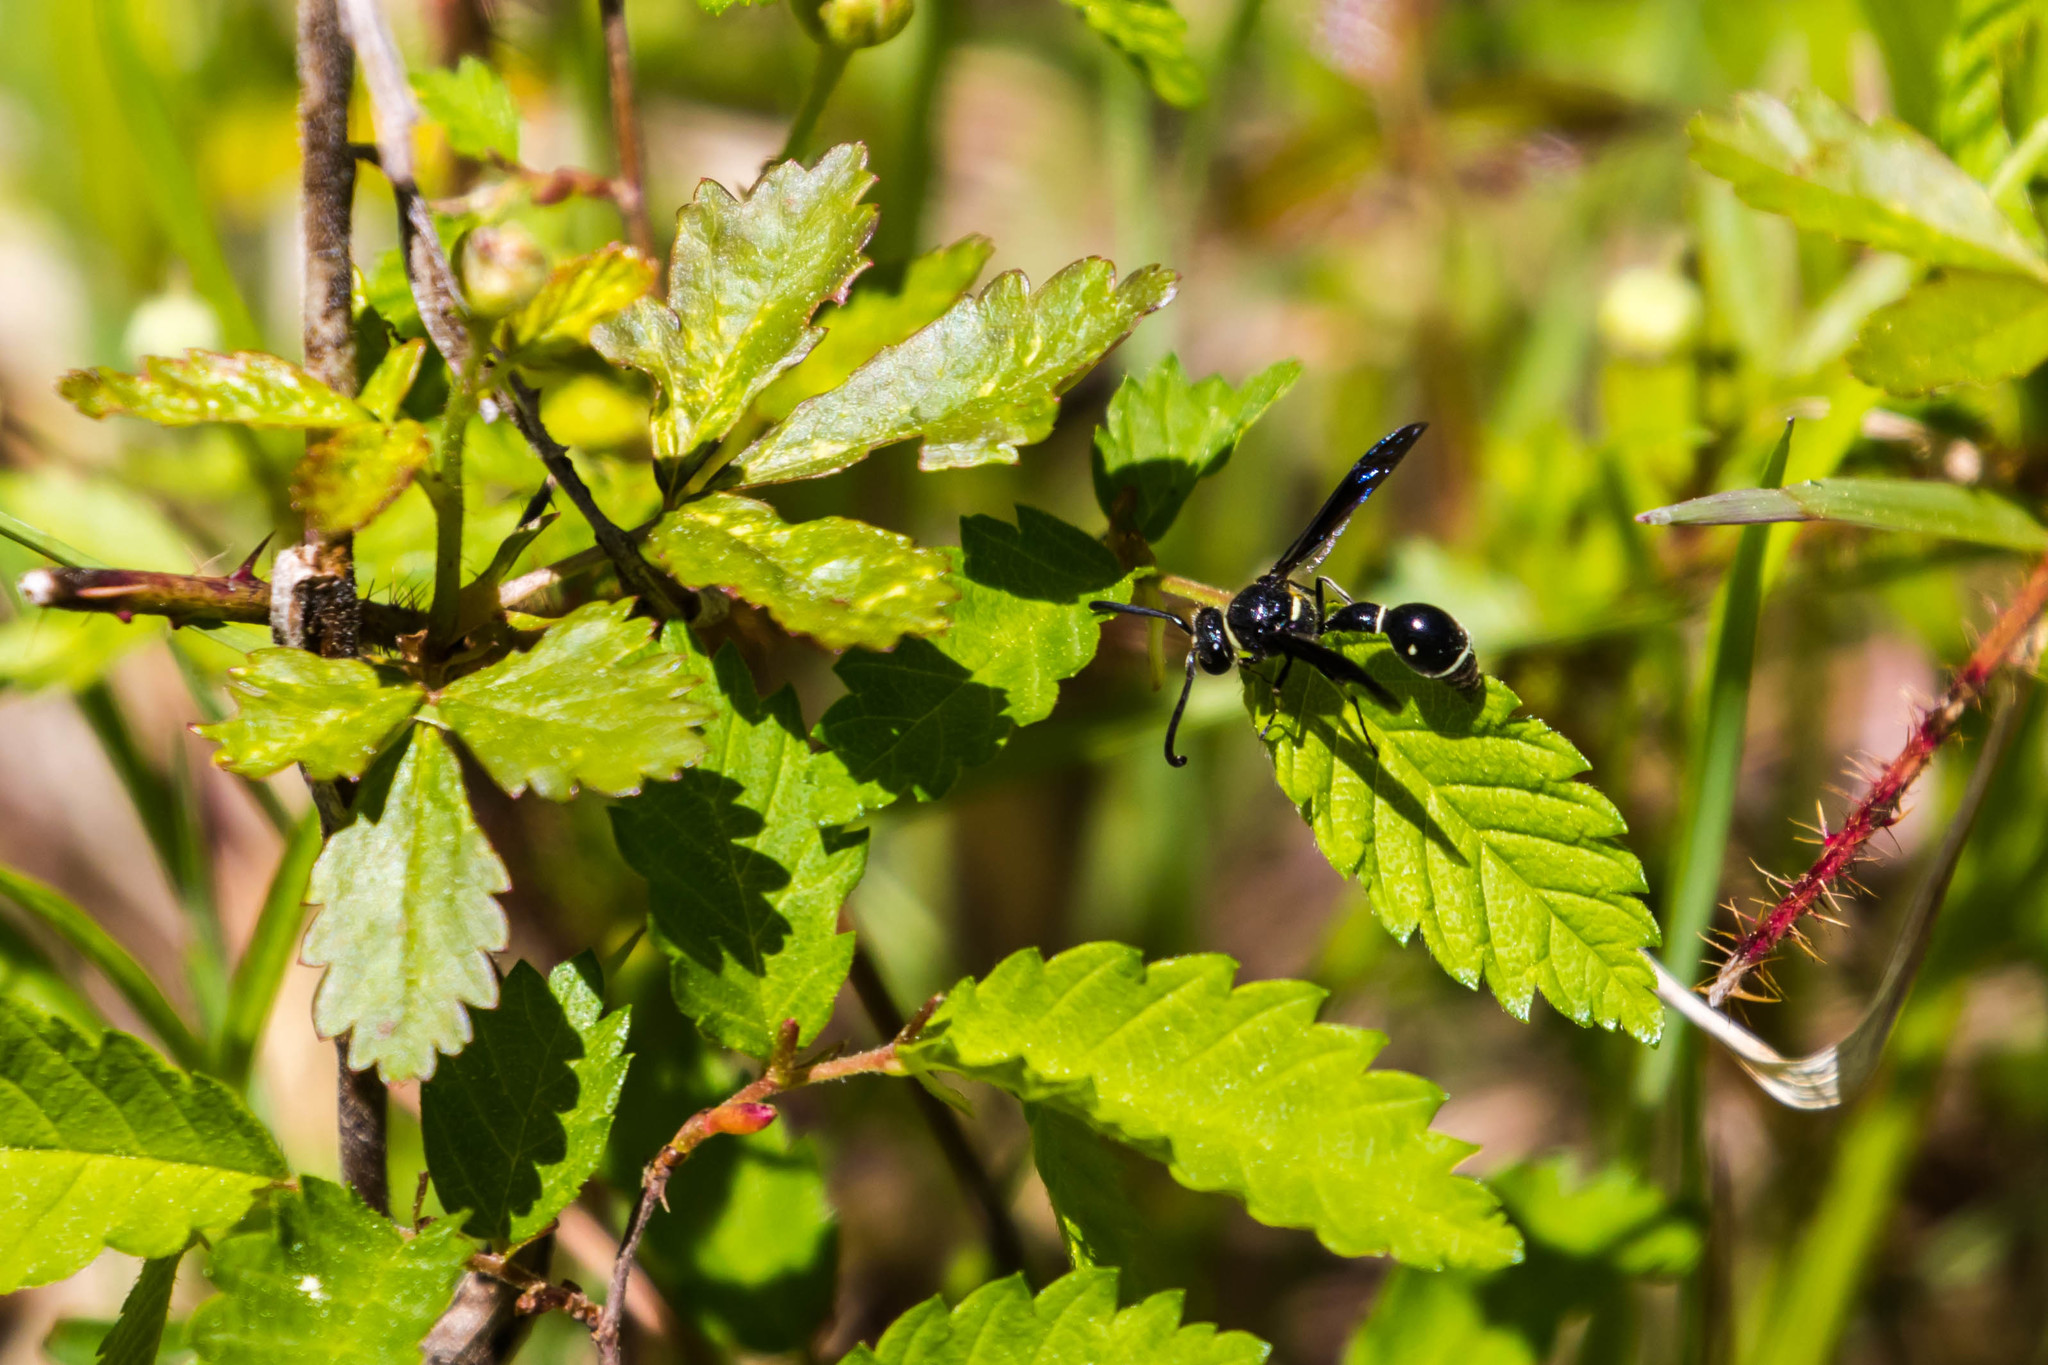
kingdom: Animalia
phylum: Arthropoda
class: Insecta
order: Hymenoptera
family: Vespidae
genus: Eumenes
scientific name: Eumenes fraternus
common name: Fraternal potter wasp
